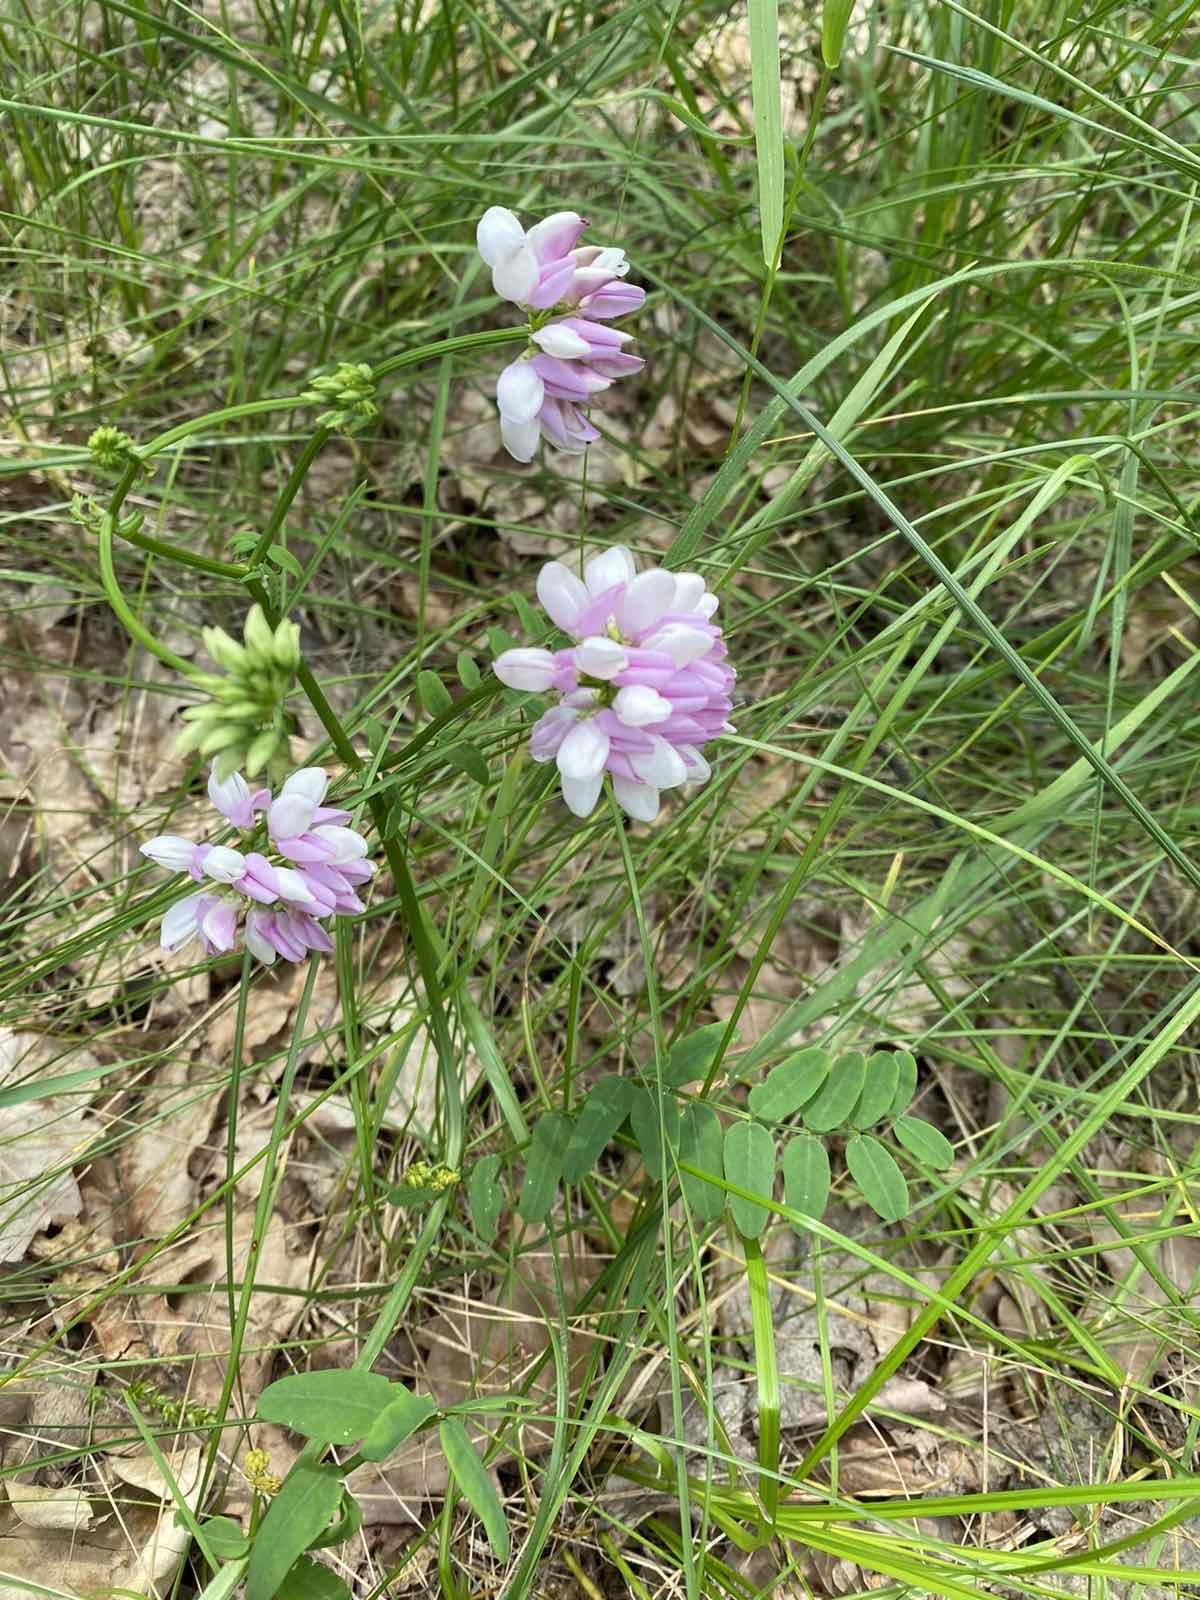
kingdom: Plantae
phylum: Tracheophyta
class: Magnoliopsida
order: Fabales
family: Fabaceae
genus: Coronilla
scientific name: Coronilla varia
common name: Crownvetch
